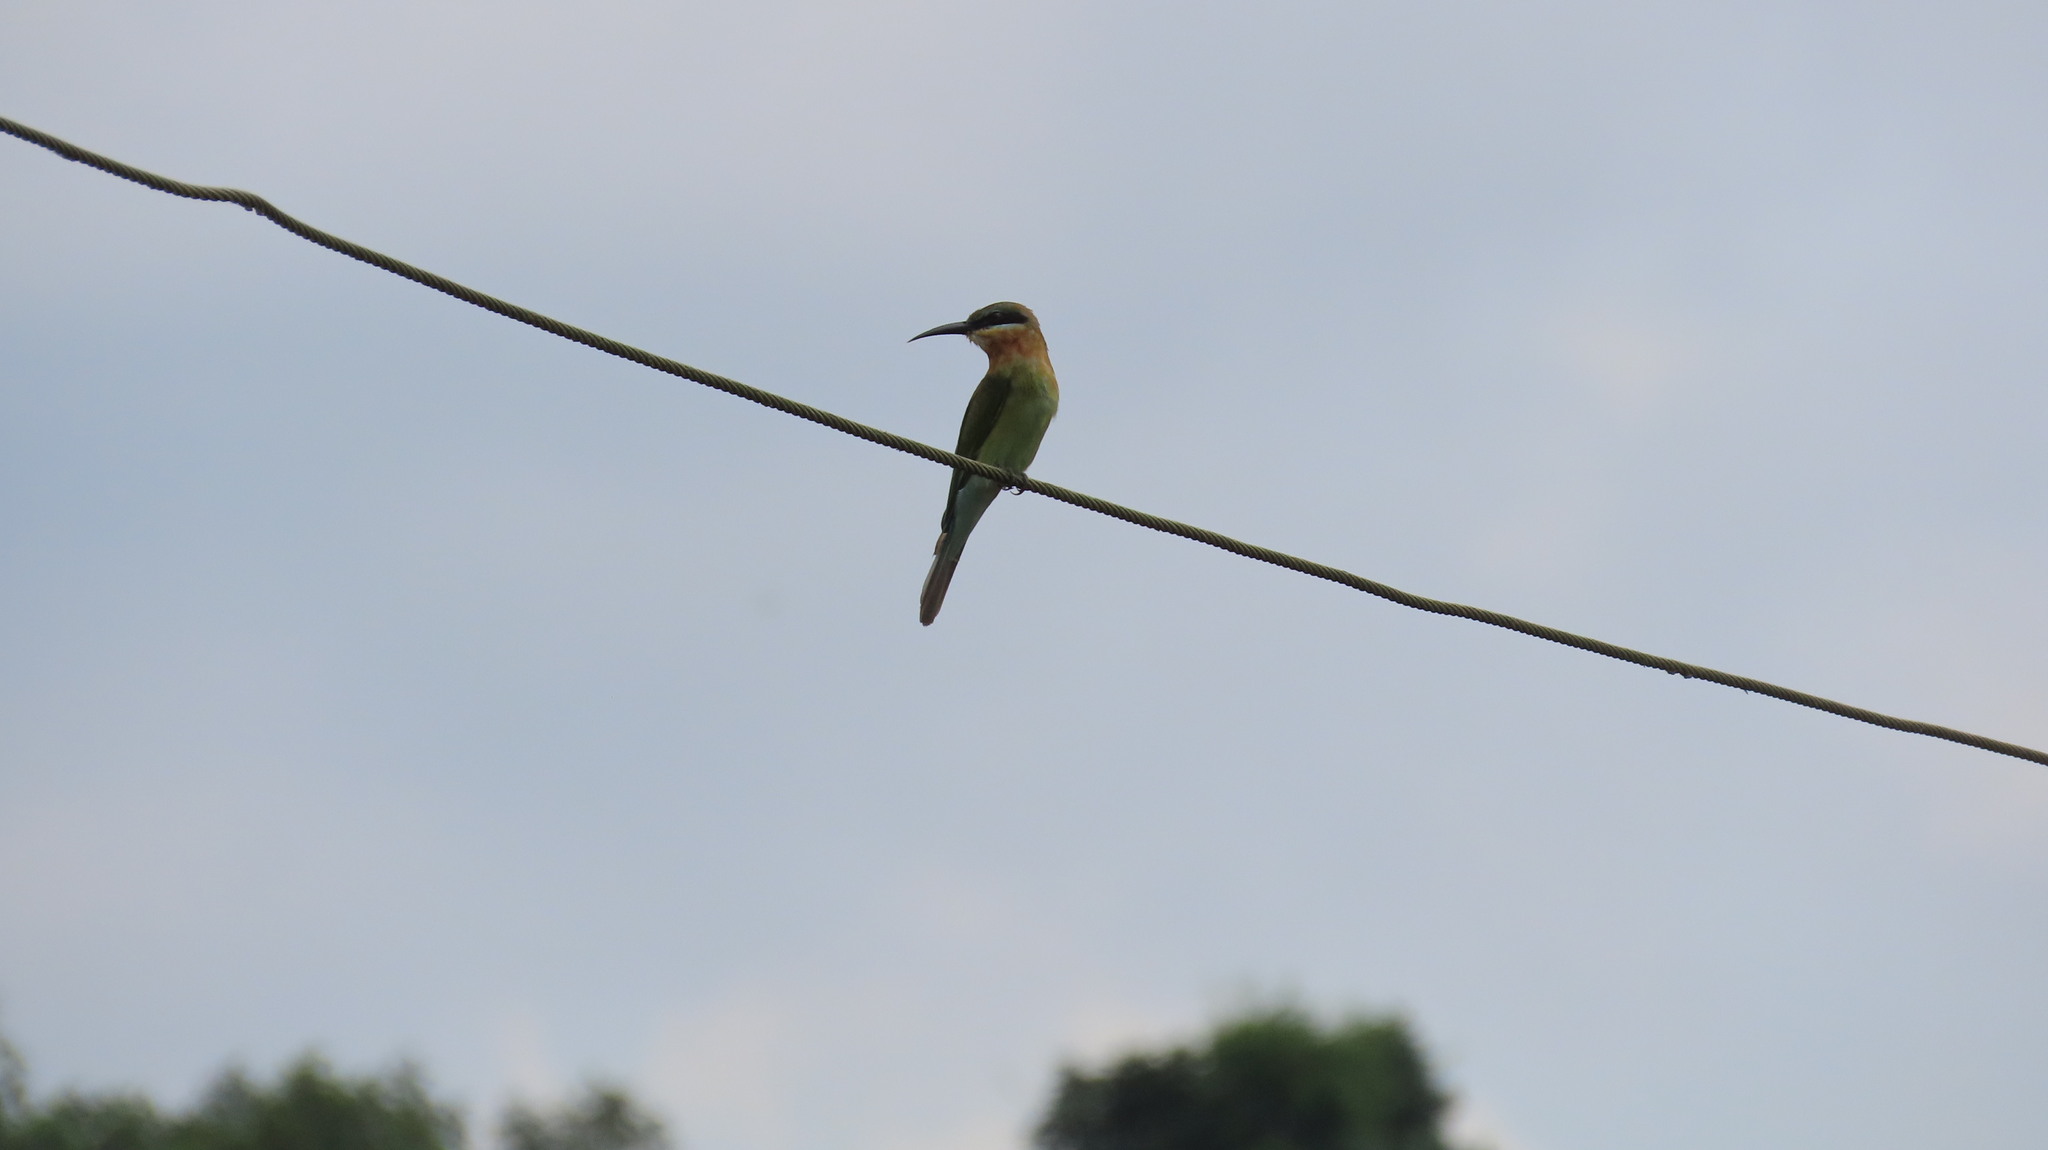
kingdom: Animalia
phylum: Chordata
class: Aves
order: Coraciiformes
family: Meropidae
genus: Merops
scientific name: Merops philippinus
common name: Blue-tailed bee-eater
